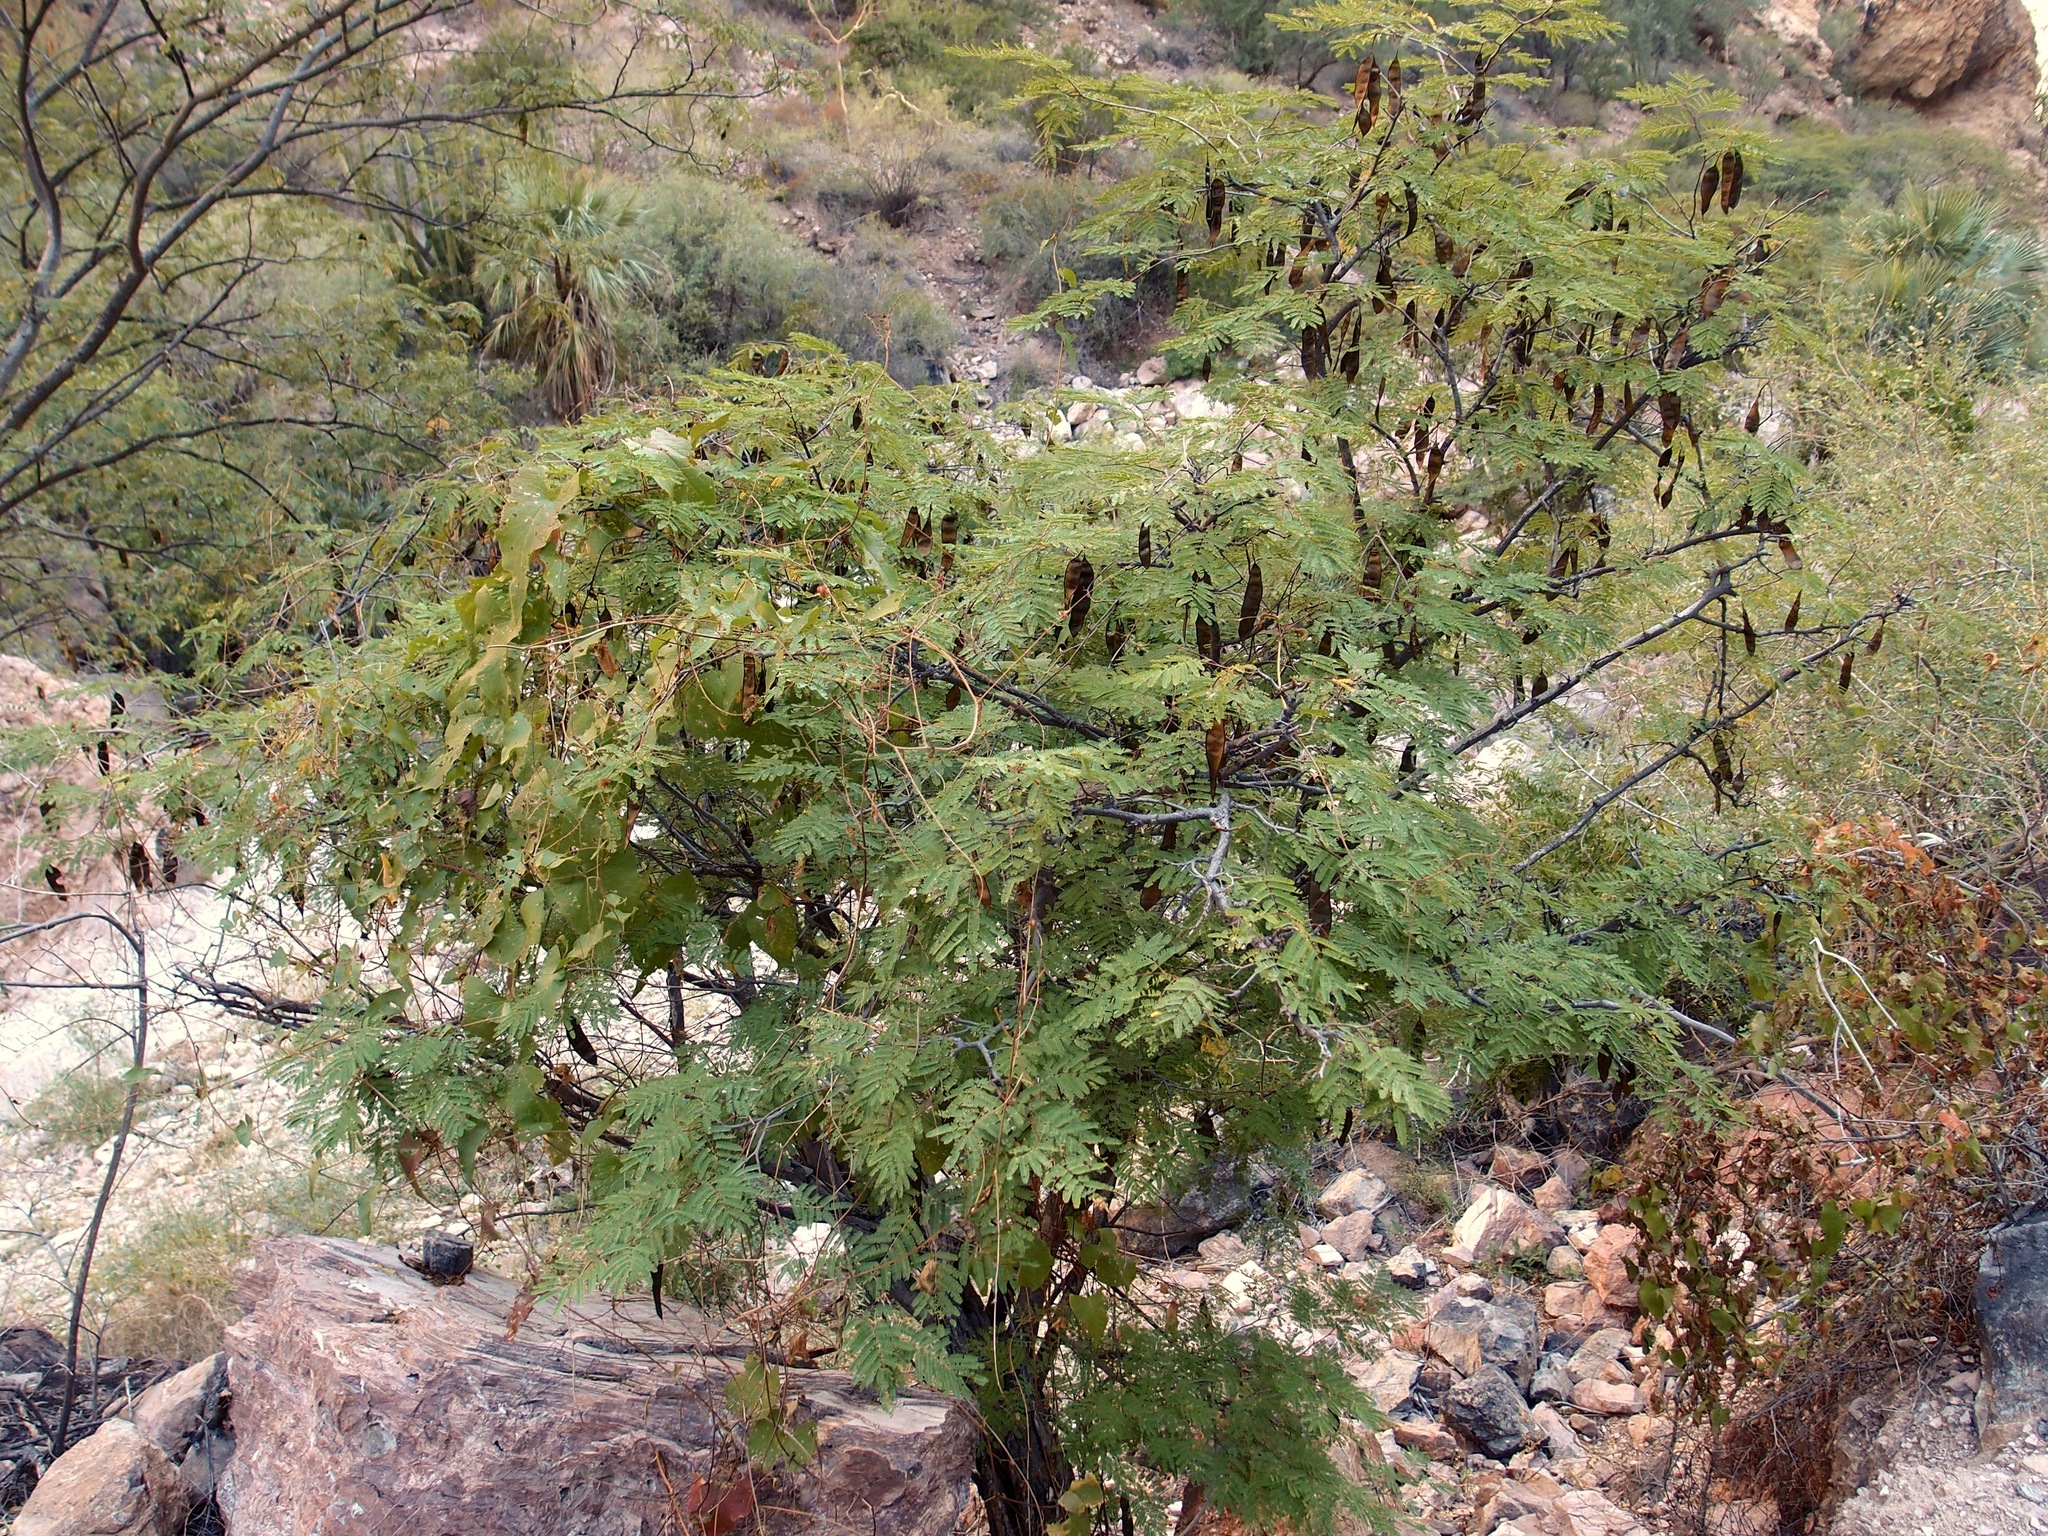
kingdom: Plantae
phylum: Tracheophyta
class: Magnoliopsida
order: Fabales
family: Fabaceae
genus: Lysiloma
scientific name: Lysiloma divaricatum
